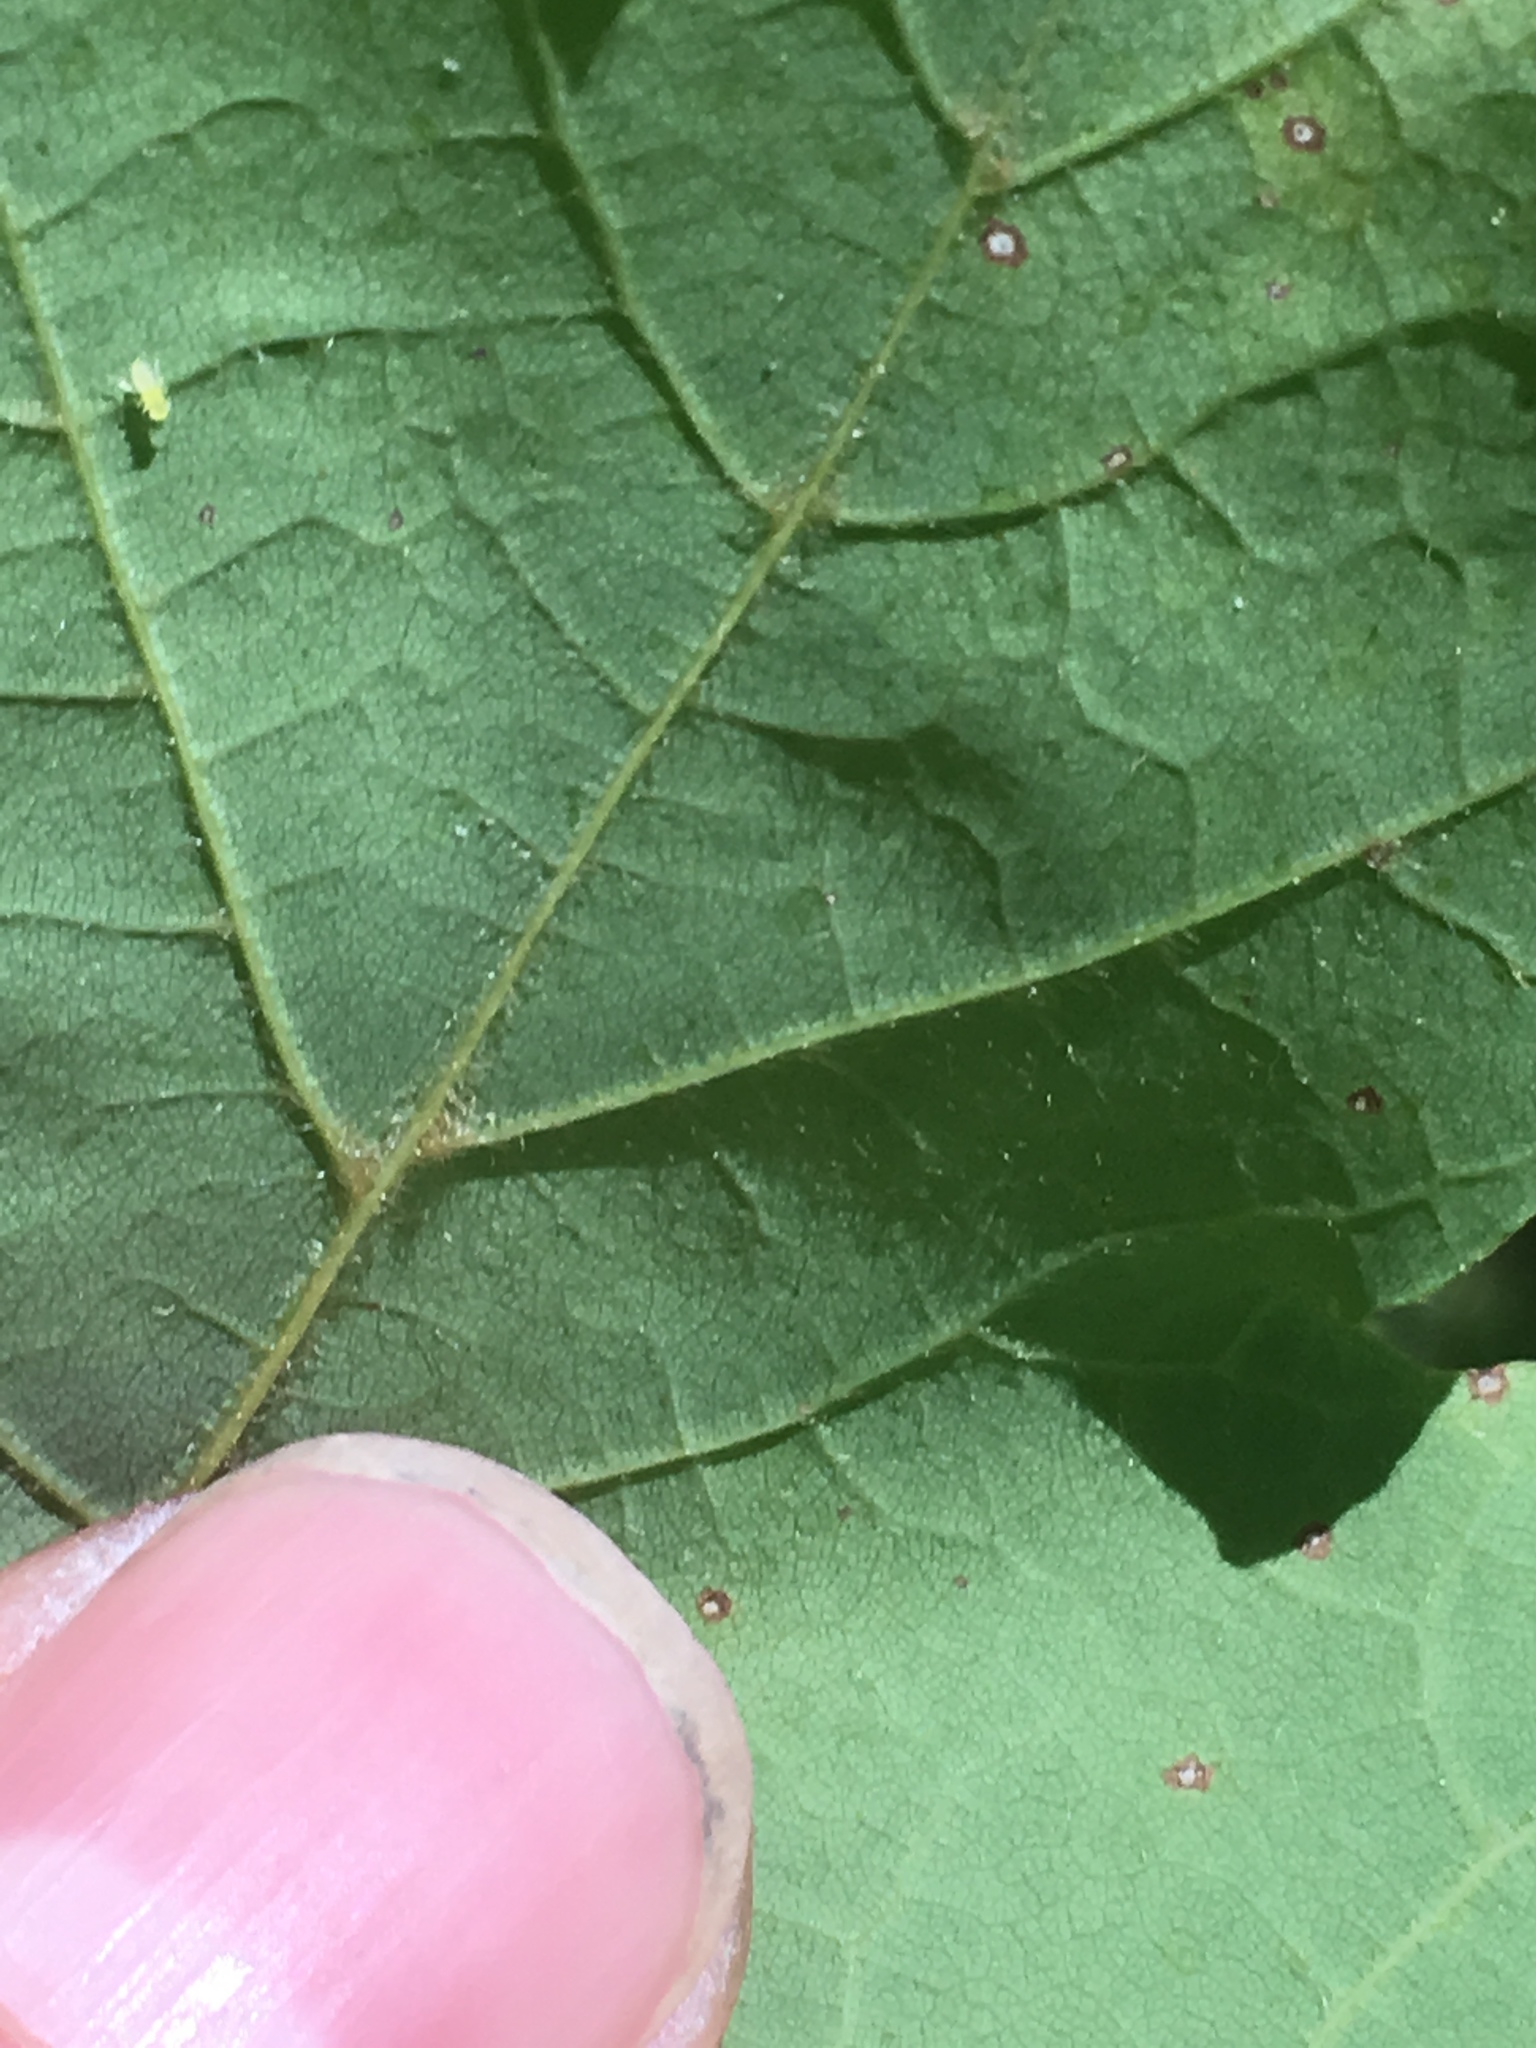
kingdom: Plantae
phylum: Tracheophyta
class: Magnoliopsida
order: Sapindales
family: Sapindaceae
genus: Acer
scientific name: Acer nigrum
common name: Black maple
